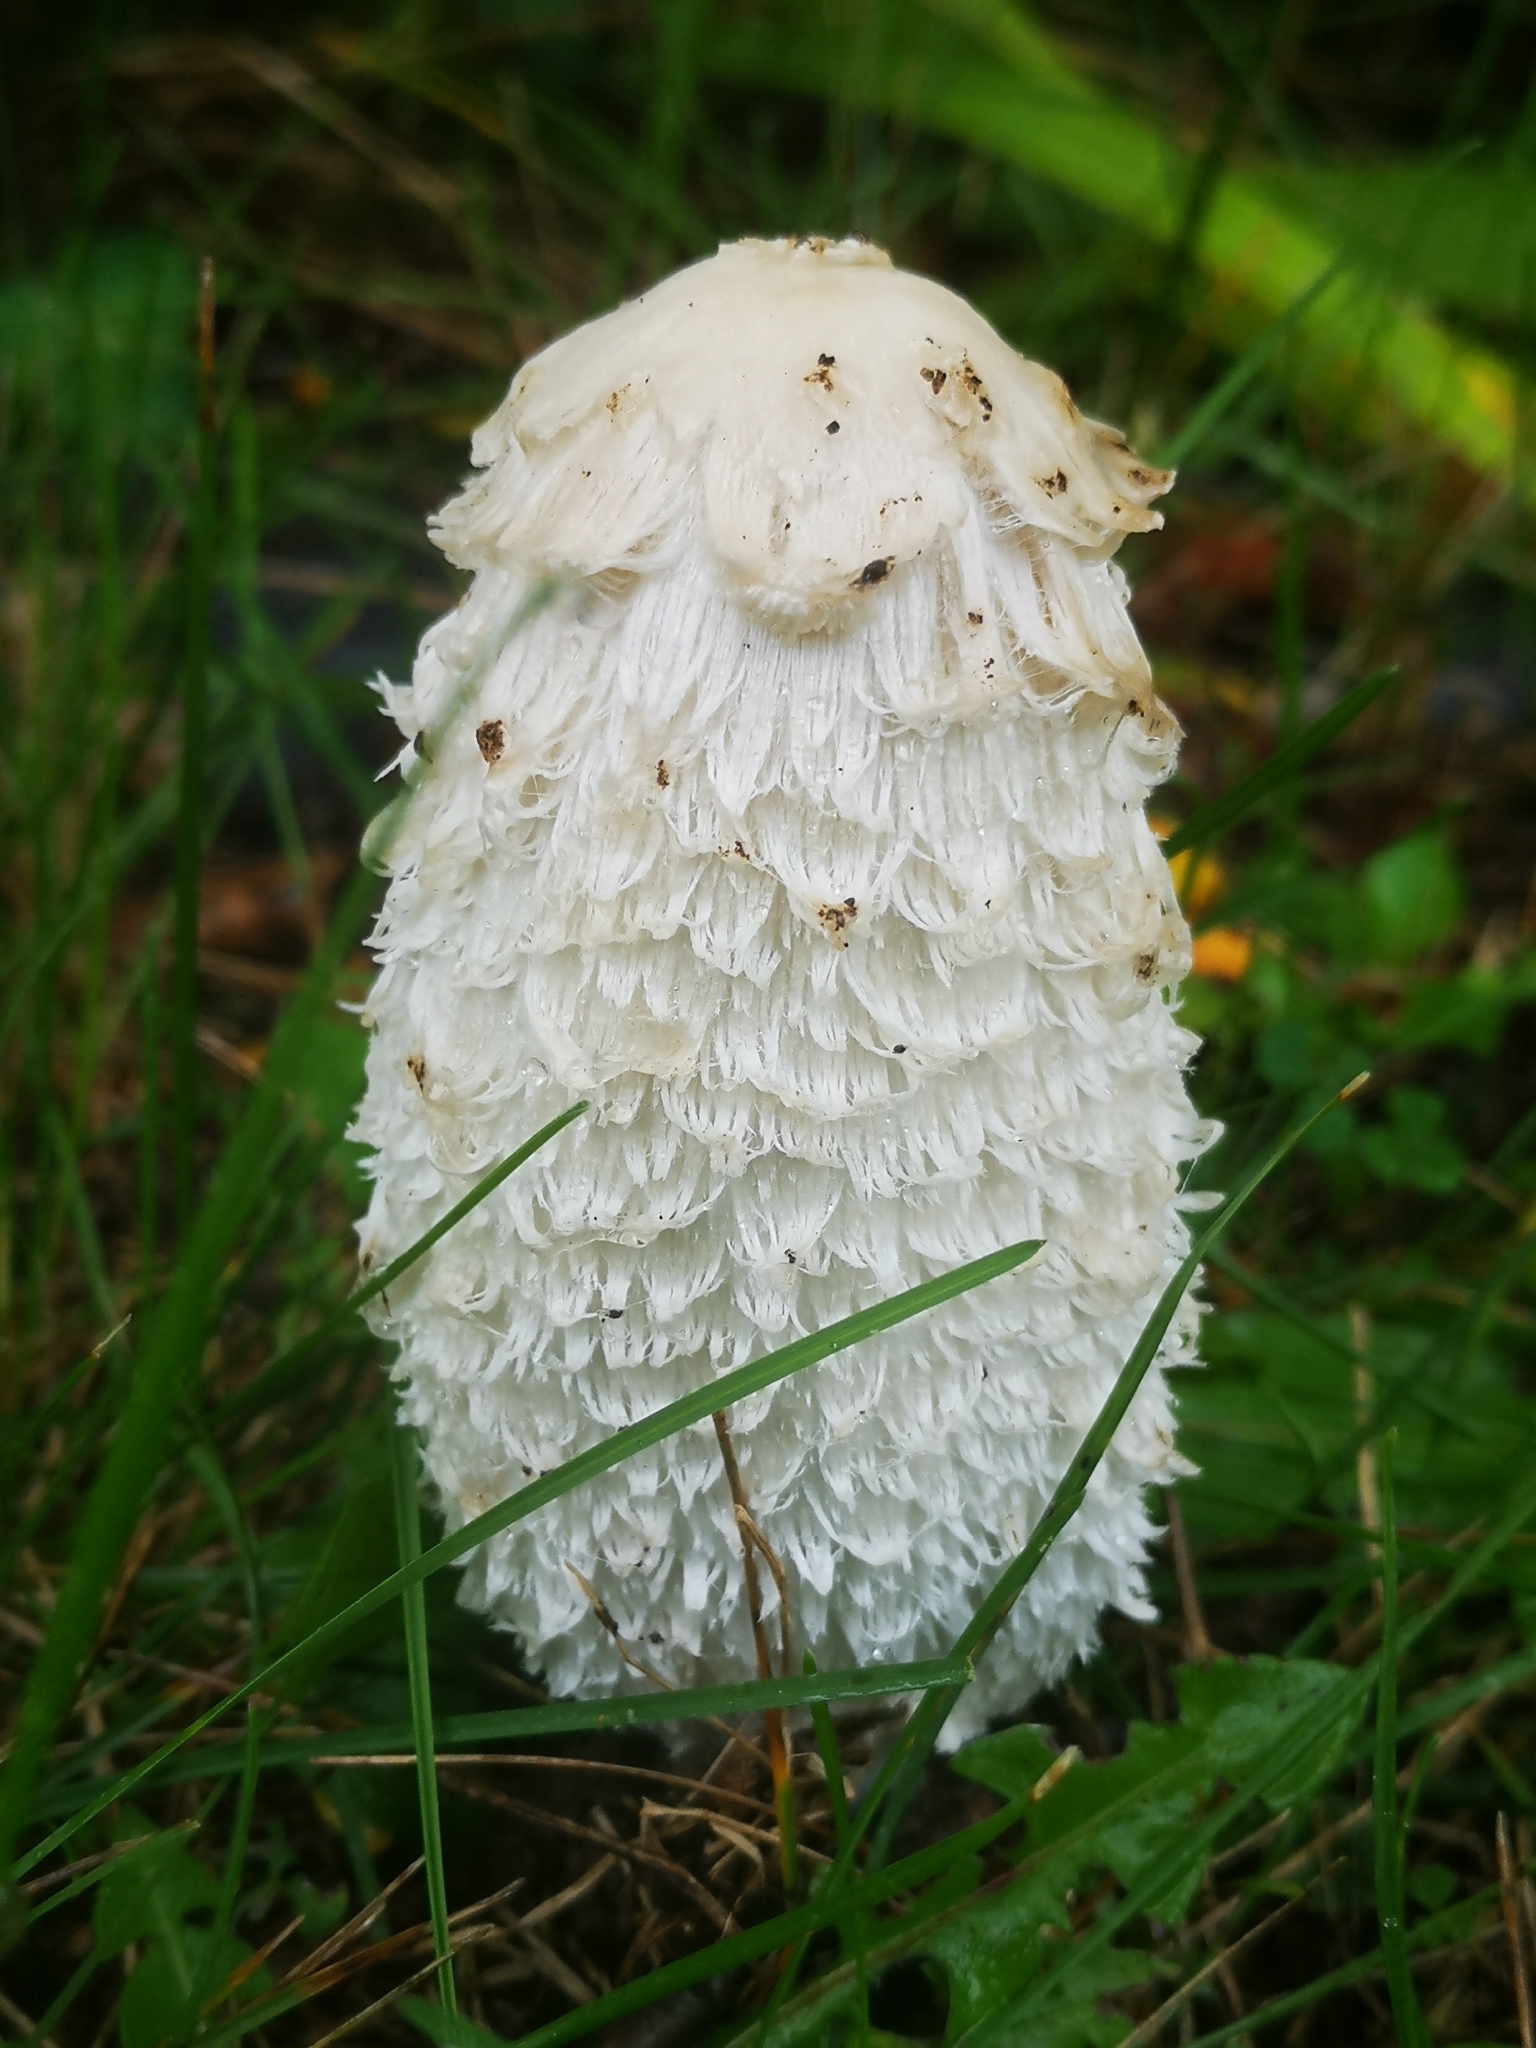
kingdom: Fungi
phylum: Basidiomycota
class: Agaricomycetes
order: Agaricales
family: Agaricaceae
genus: Coprinus
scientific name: Coprinus comatus
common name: Lawyer's wig
